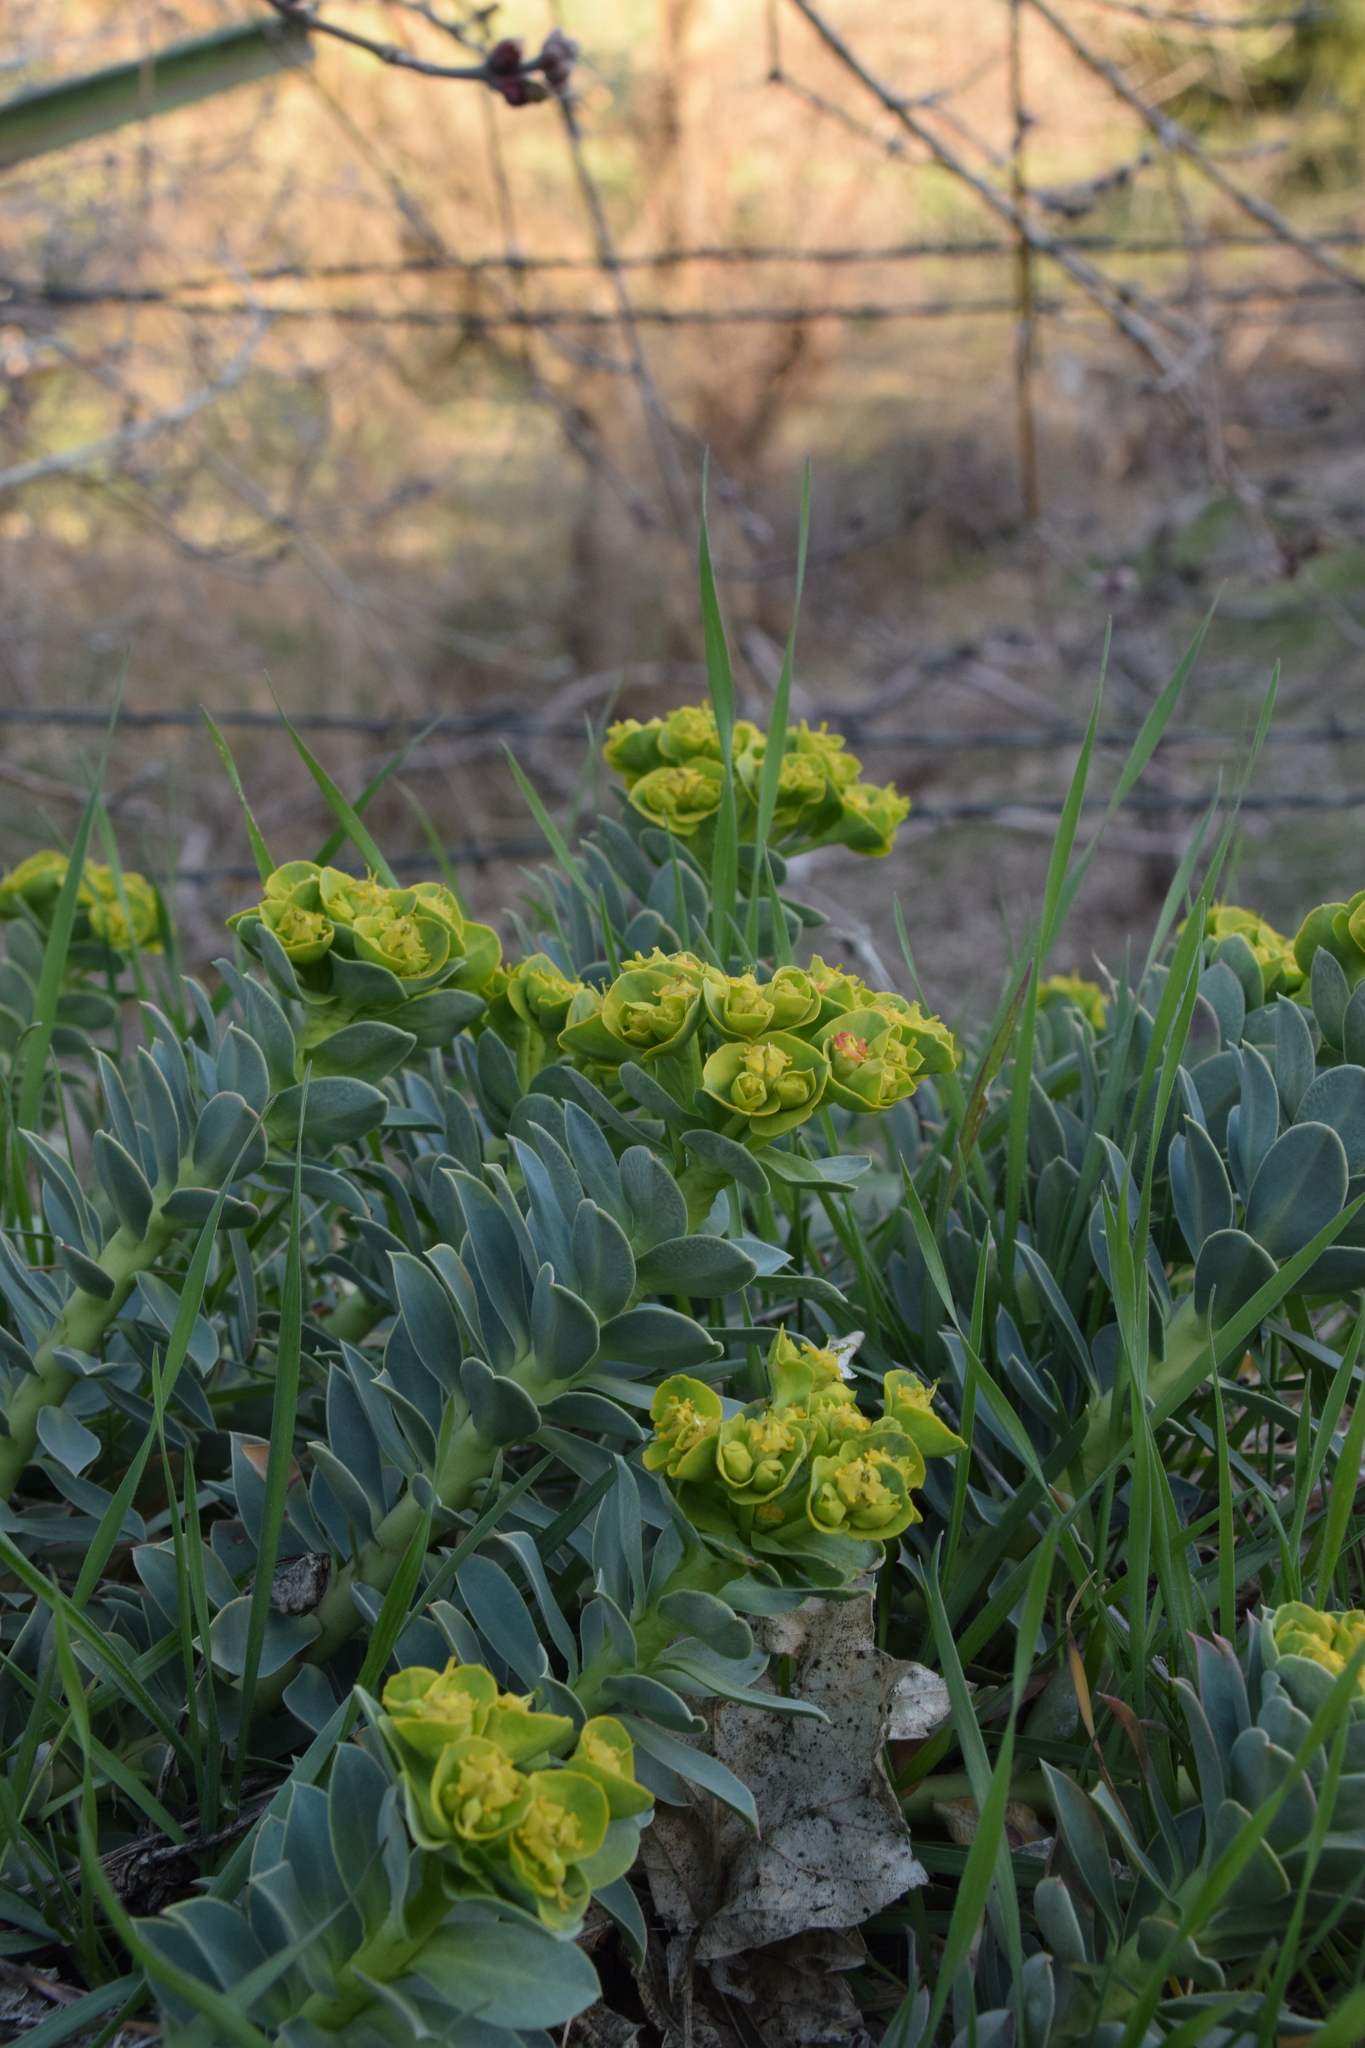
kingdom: Plantae
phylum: Tracheophyta
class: Magnoliopsida
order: Malpighiales
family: Euphorbiaceae
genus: Euphorbia
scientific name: Euphorbia myrsinites
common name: Myrtle spurge
